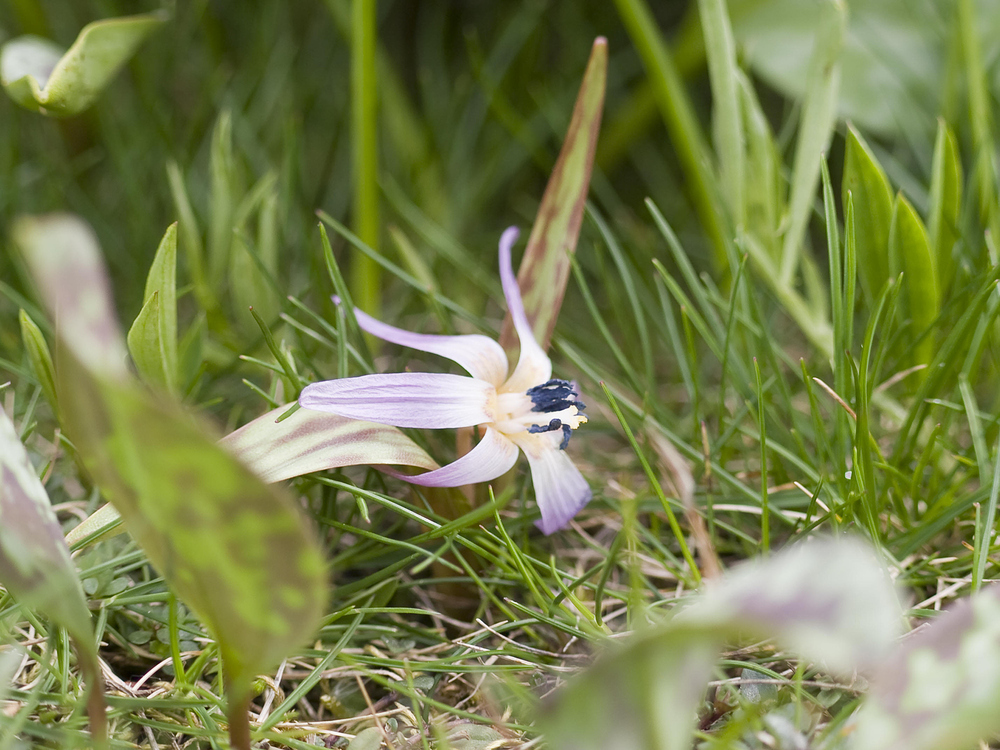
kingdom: Plantae
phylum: Tracheophyta
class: Liliopsida
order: Liliales
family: Liliaceae
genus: Erythronium
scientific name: Erythronium dens-canis
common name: Dog's-tooth-violet
